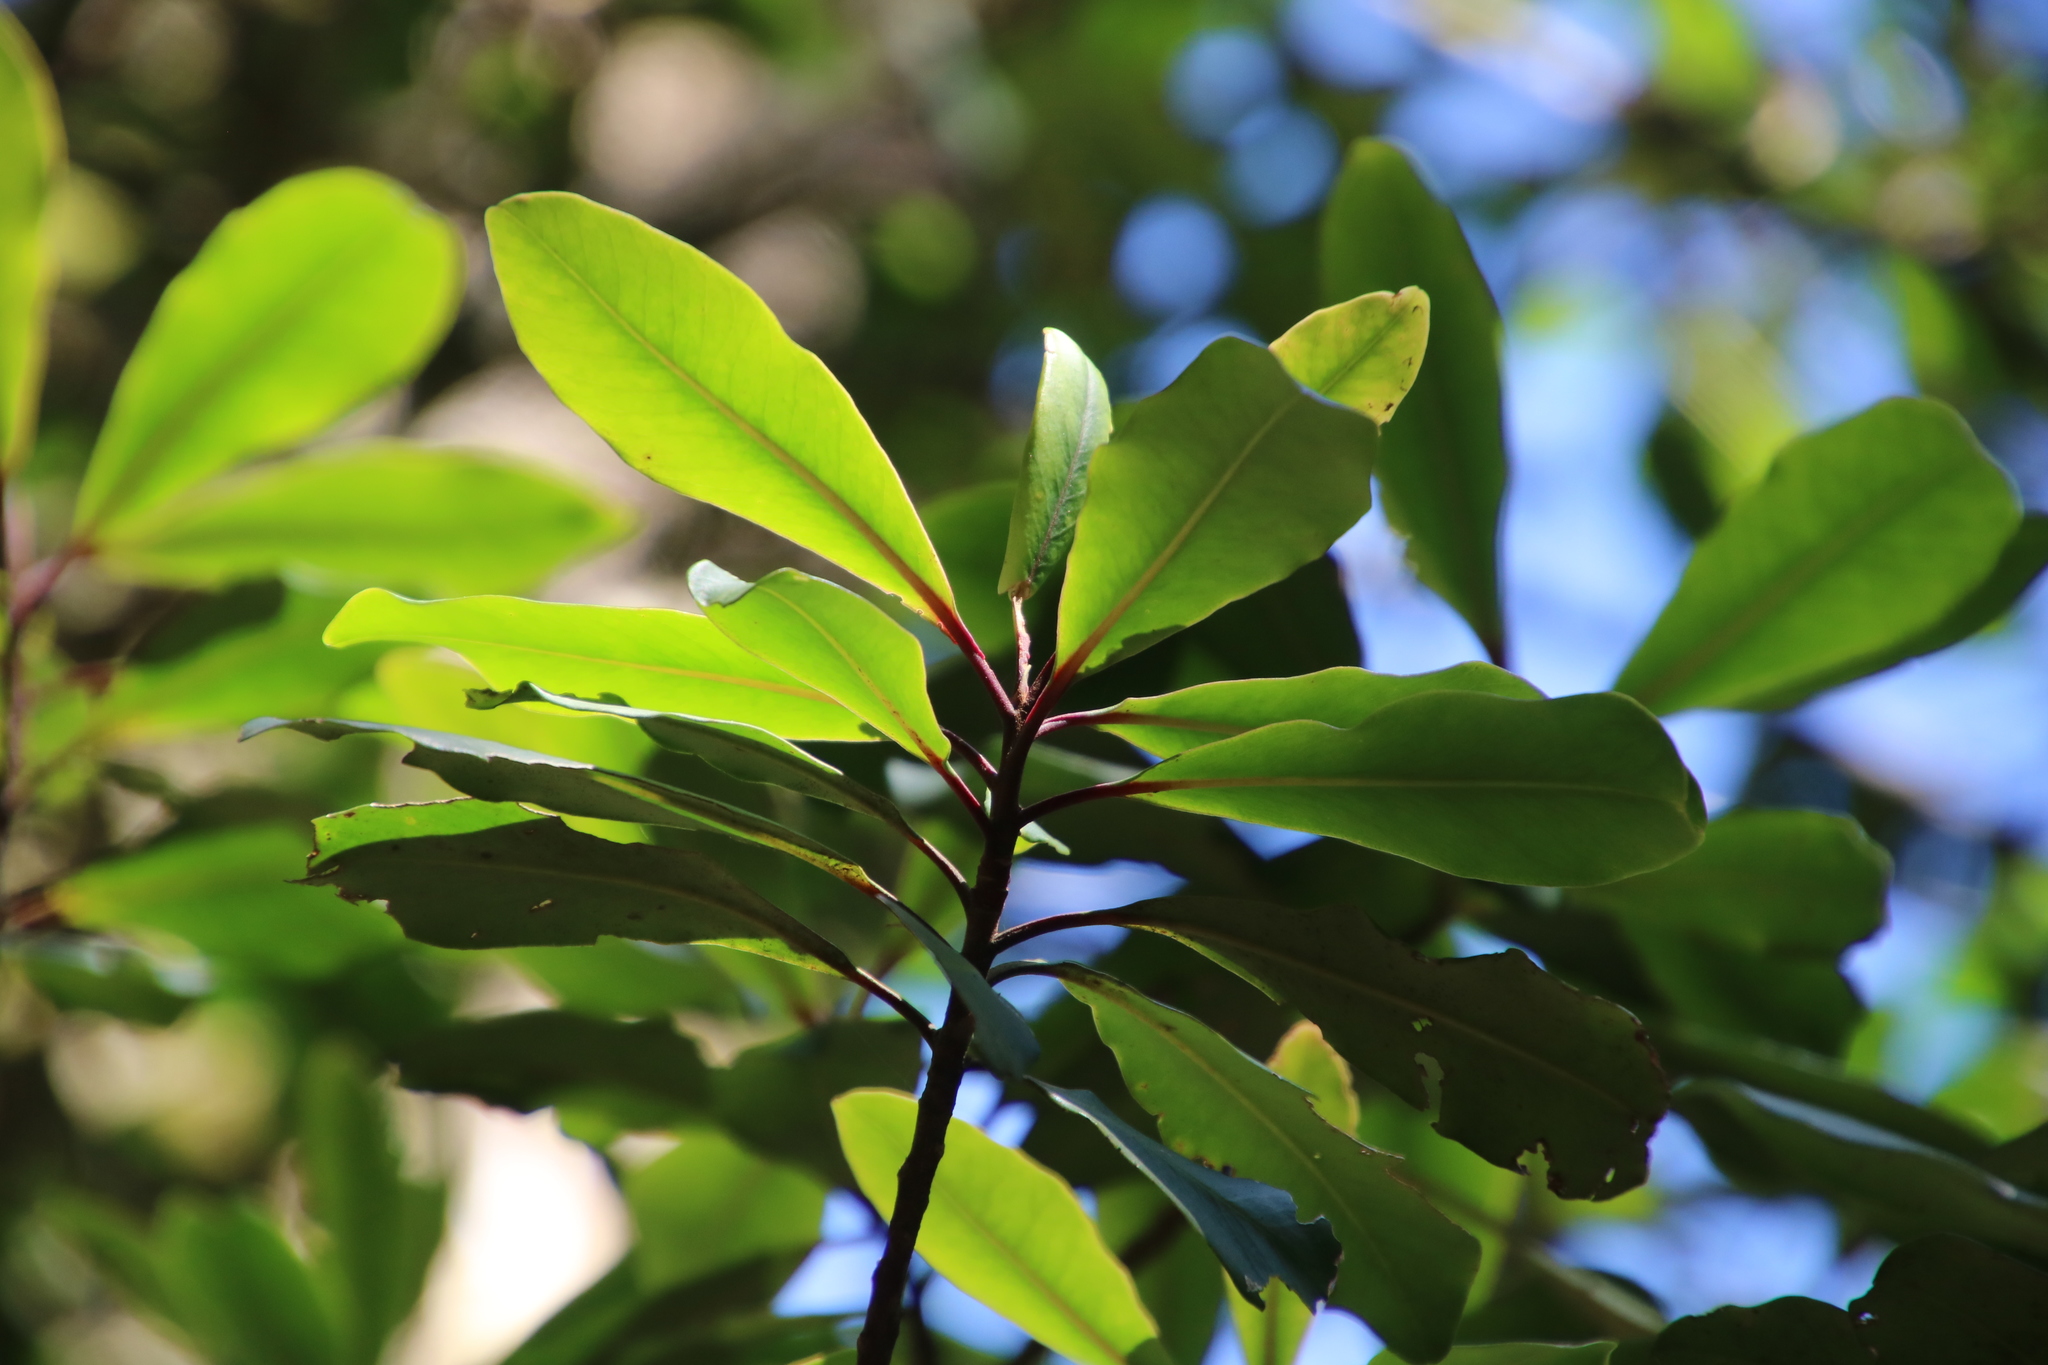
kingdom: Plantae
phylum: Tracheophyta
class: Magnoliopsida
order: Ericales
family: Primulaceae
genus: Myrsine
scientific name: Myrsine melanophloeos
